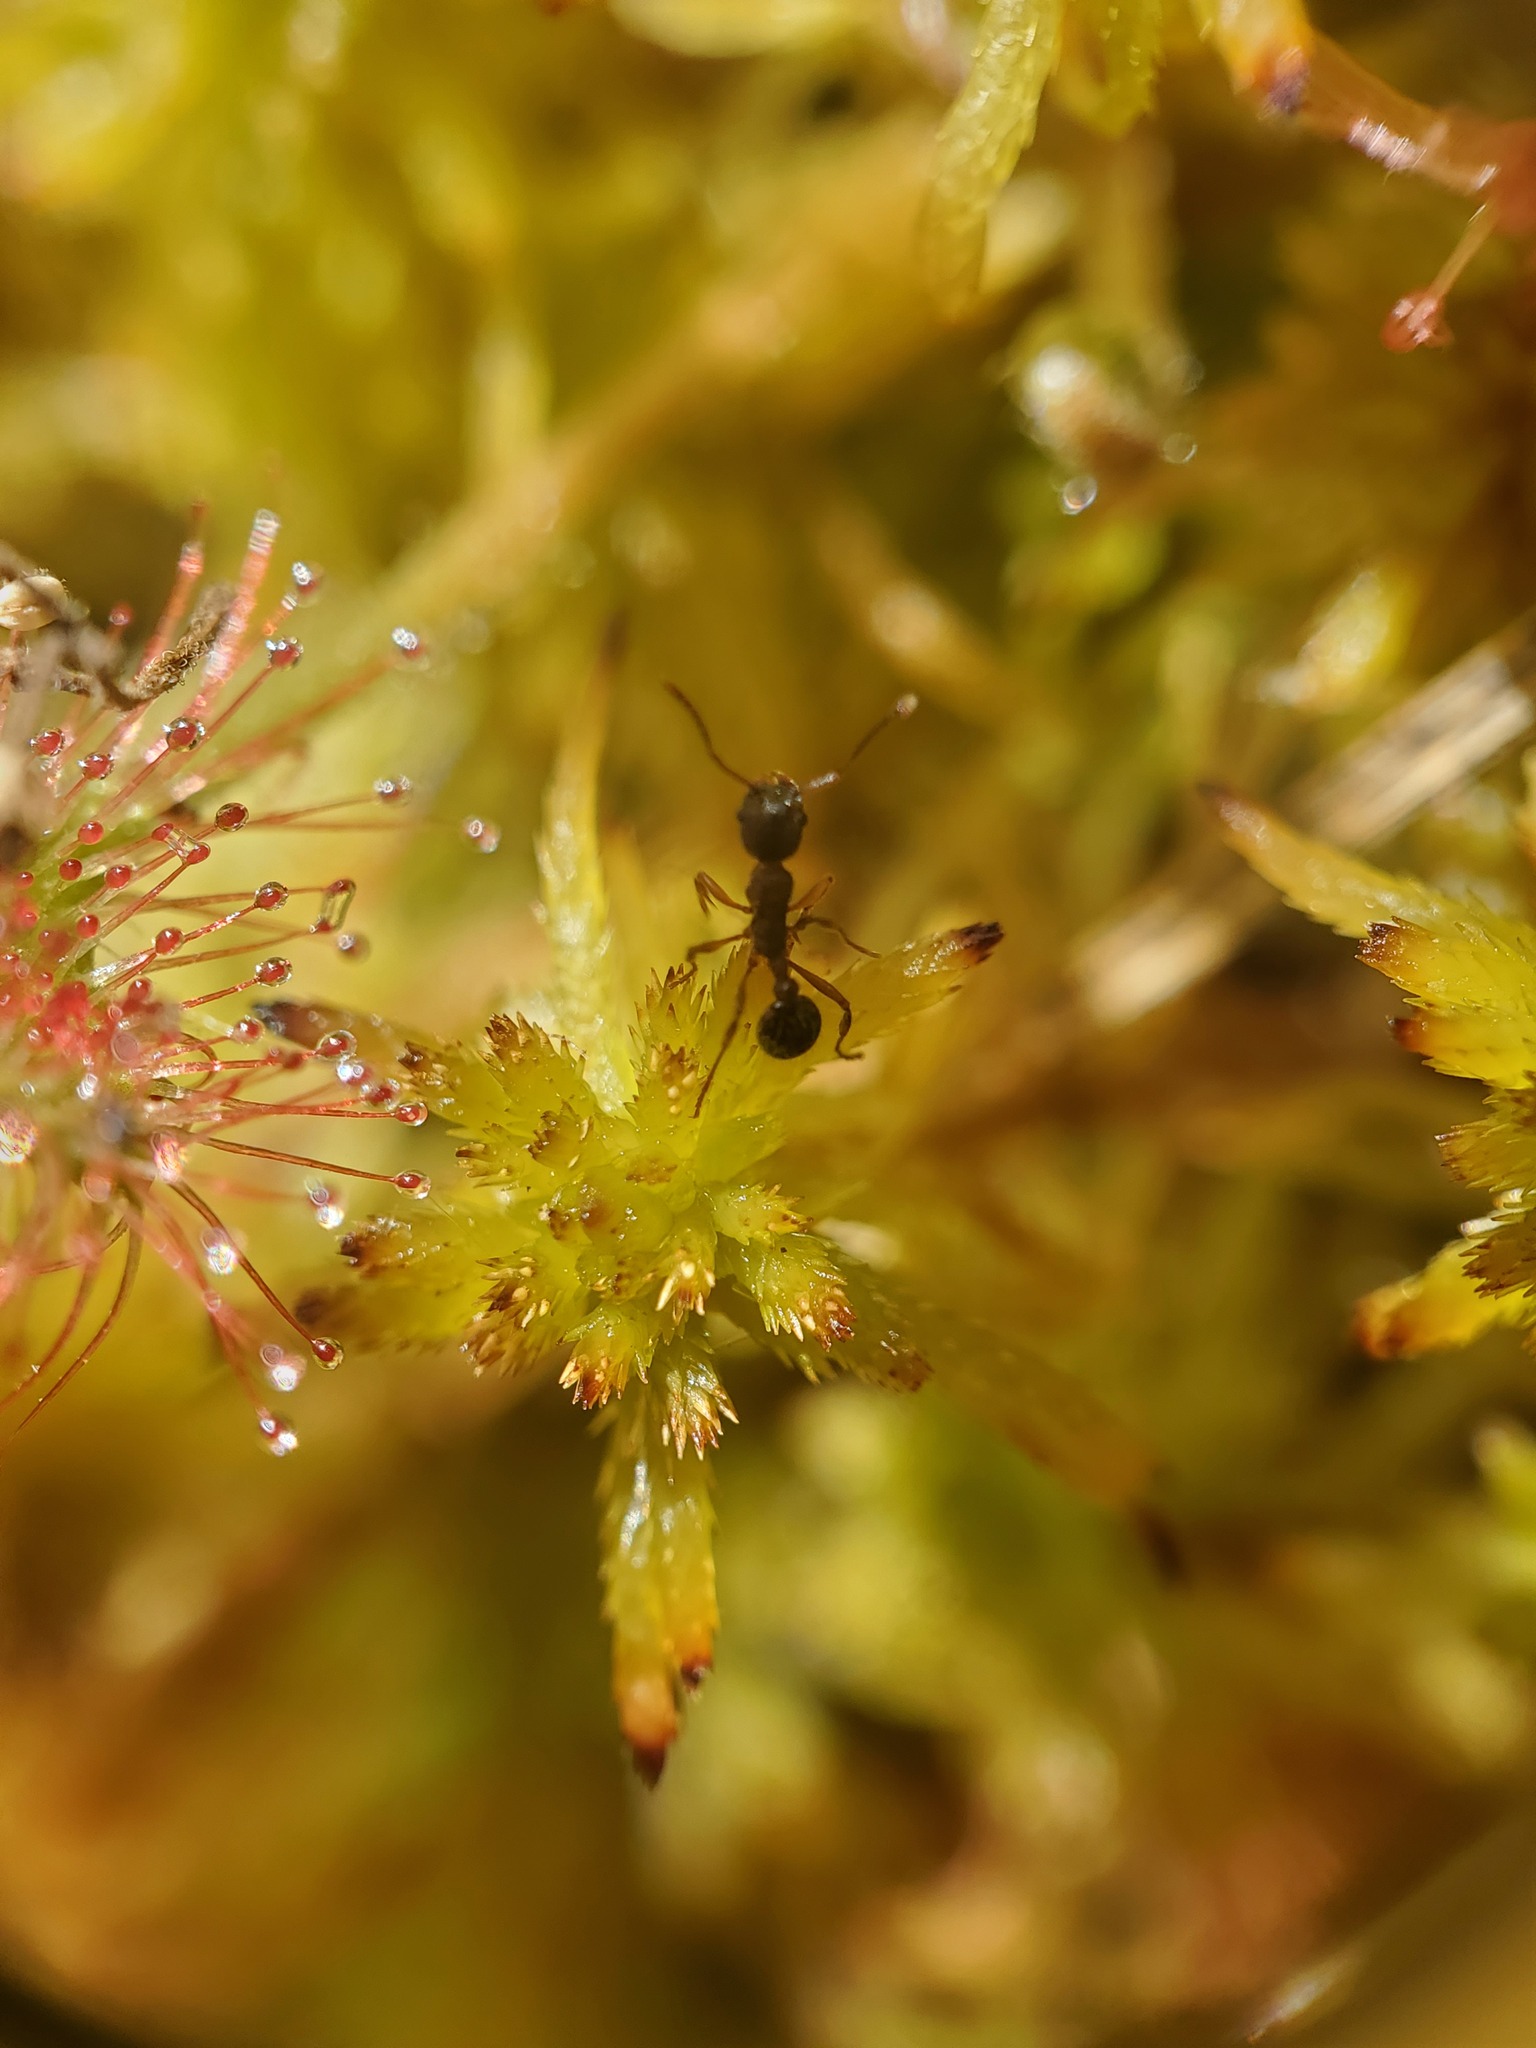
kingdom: Animalia
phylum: Arthropoda
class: Insecta
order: Hymenoptera
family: Formicidae
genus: Myrmica
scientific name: Myrmica
